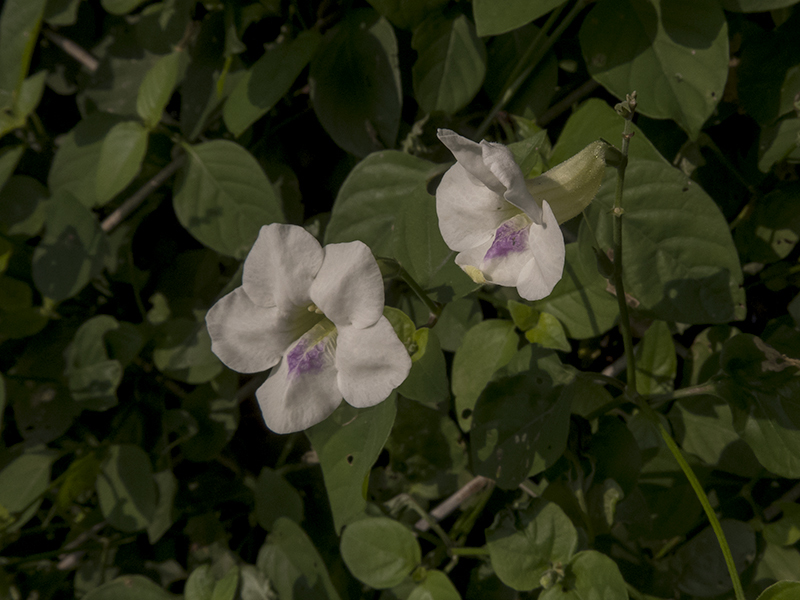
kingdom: Plantae
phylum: Tracheophyta
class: Magnoliopsida
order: Lamiales
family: Acanthaceae
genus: Asystasia
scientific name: Asystasia gangetica
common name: Chinese violet
